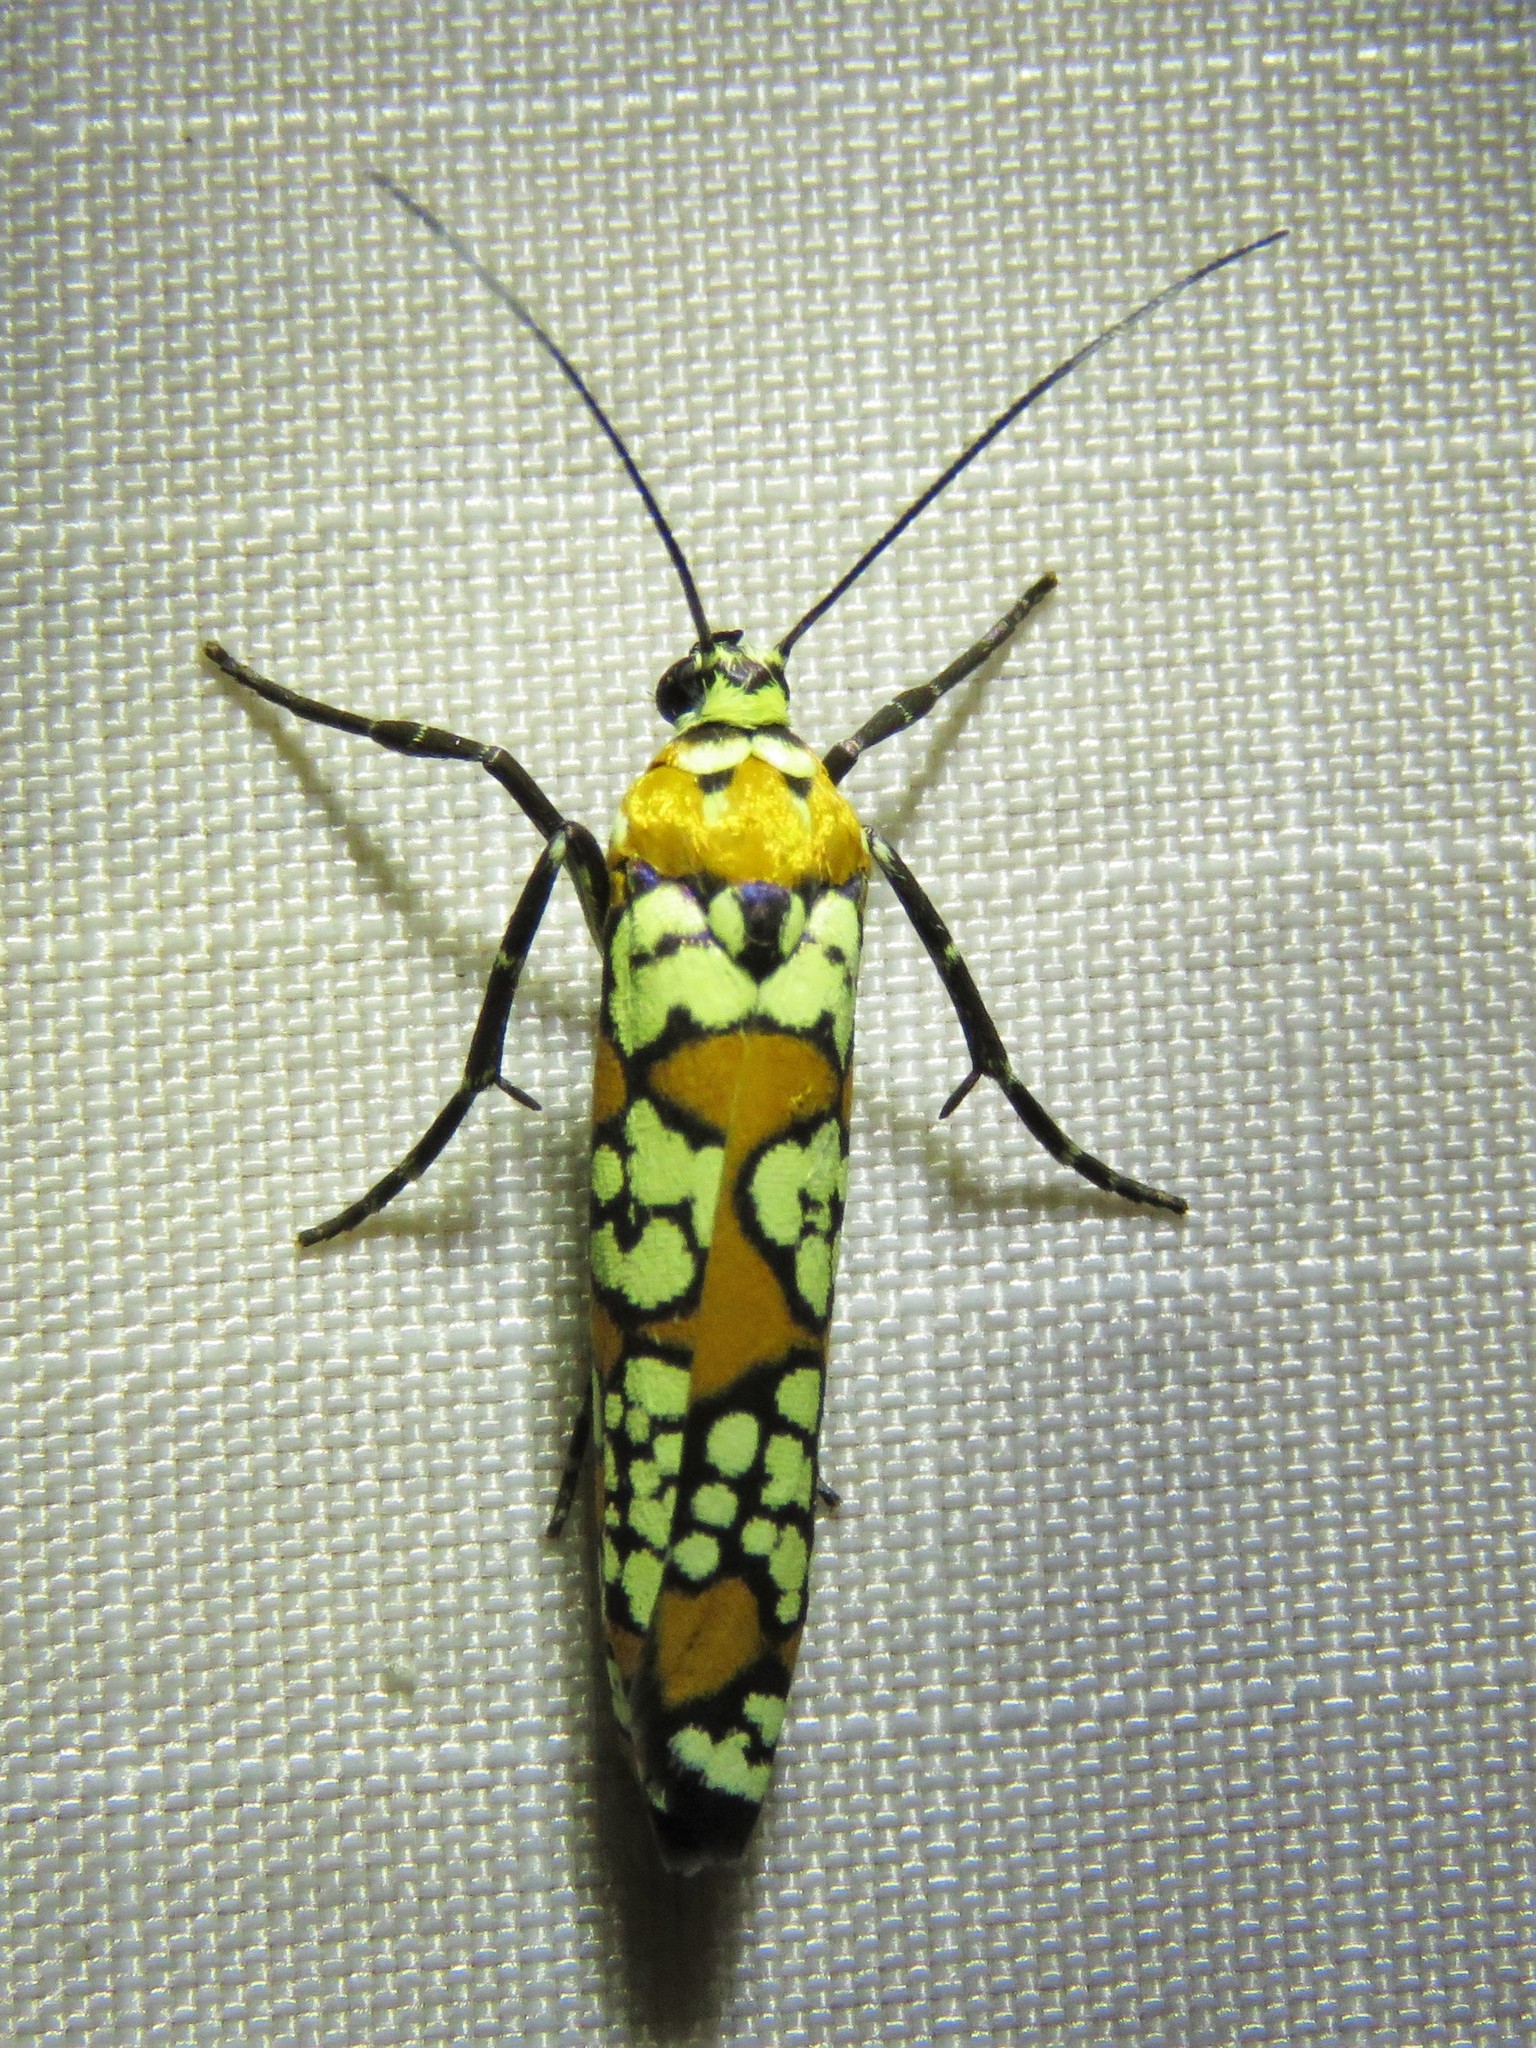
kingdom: Animalia
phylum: Arthropoda
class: Insecta
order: Lepidoptera
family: Attevidae
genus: Atteva
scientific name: Atteva punctella
